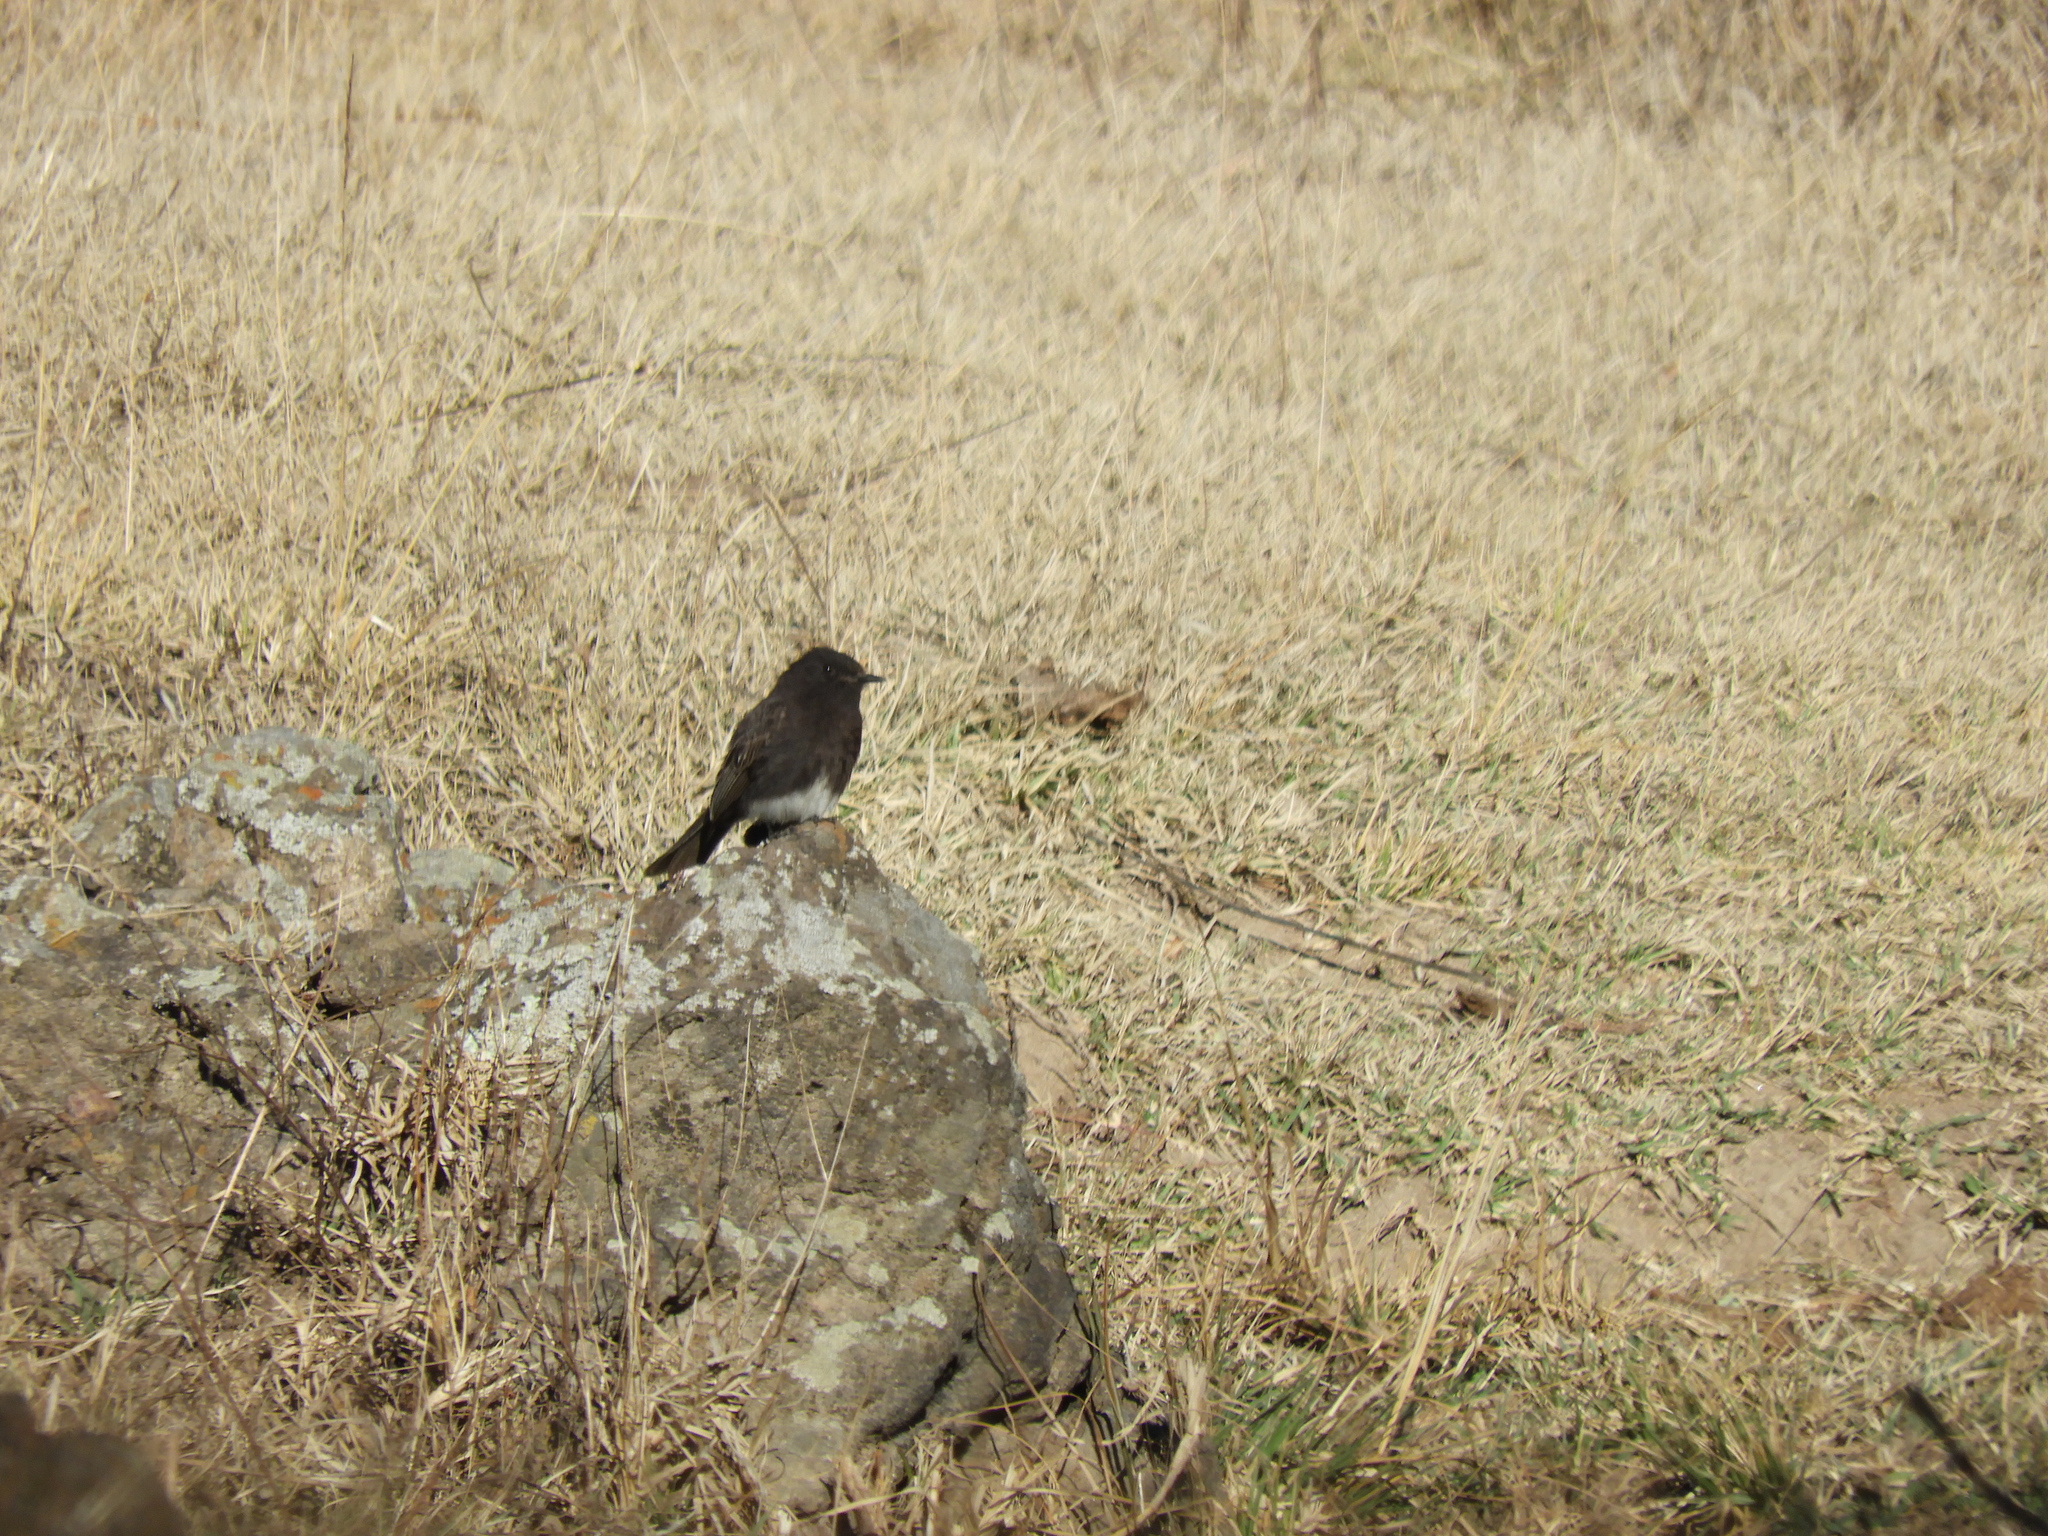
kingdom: Animalia
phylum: Chordata
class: Aves
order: Passeriformes
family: Tyrannidae
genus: Sayornis
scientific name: Sayornis nigricans
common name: Black phoebe
